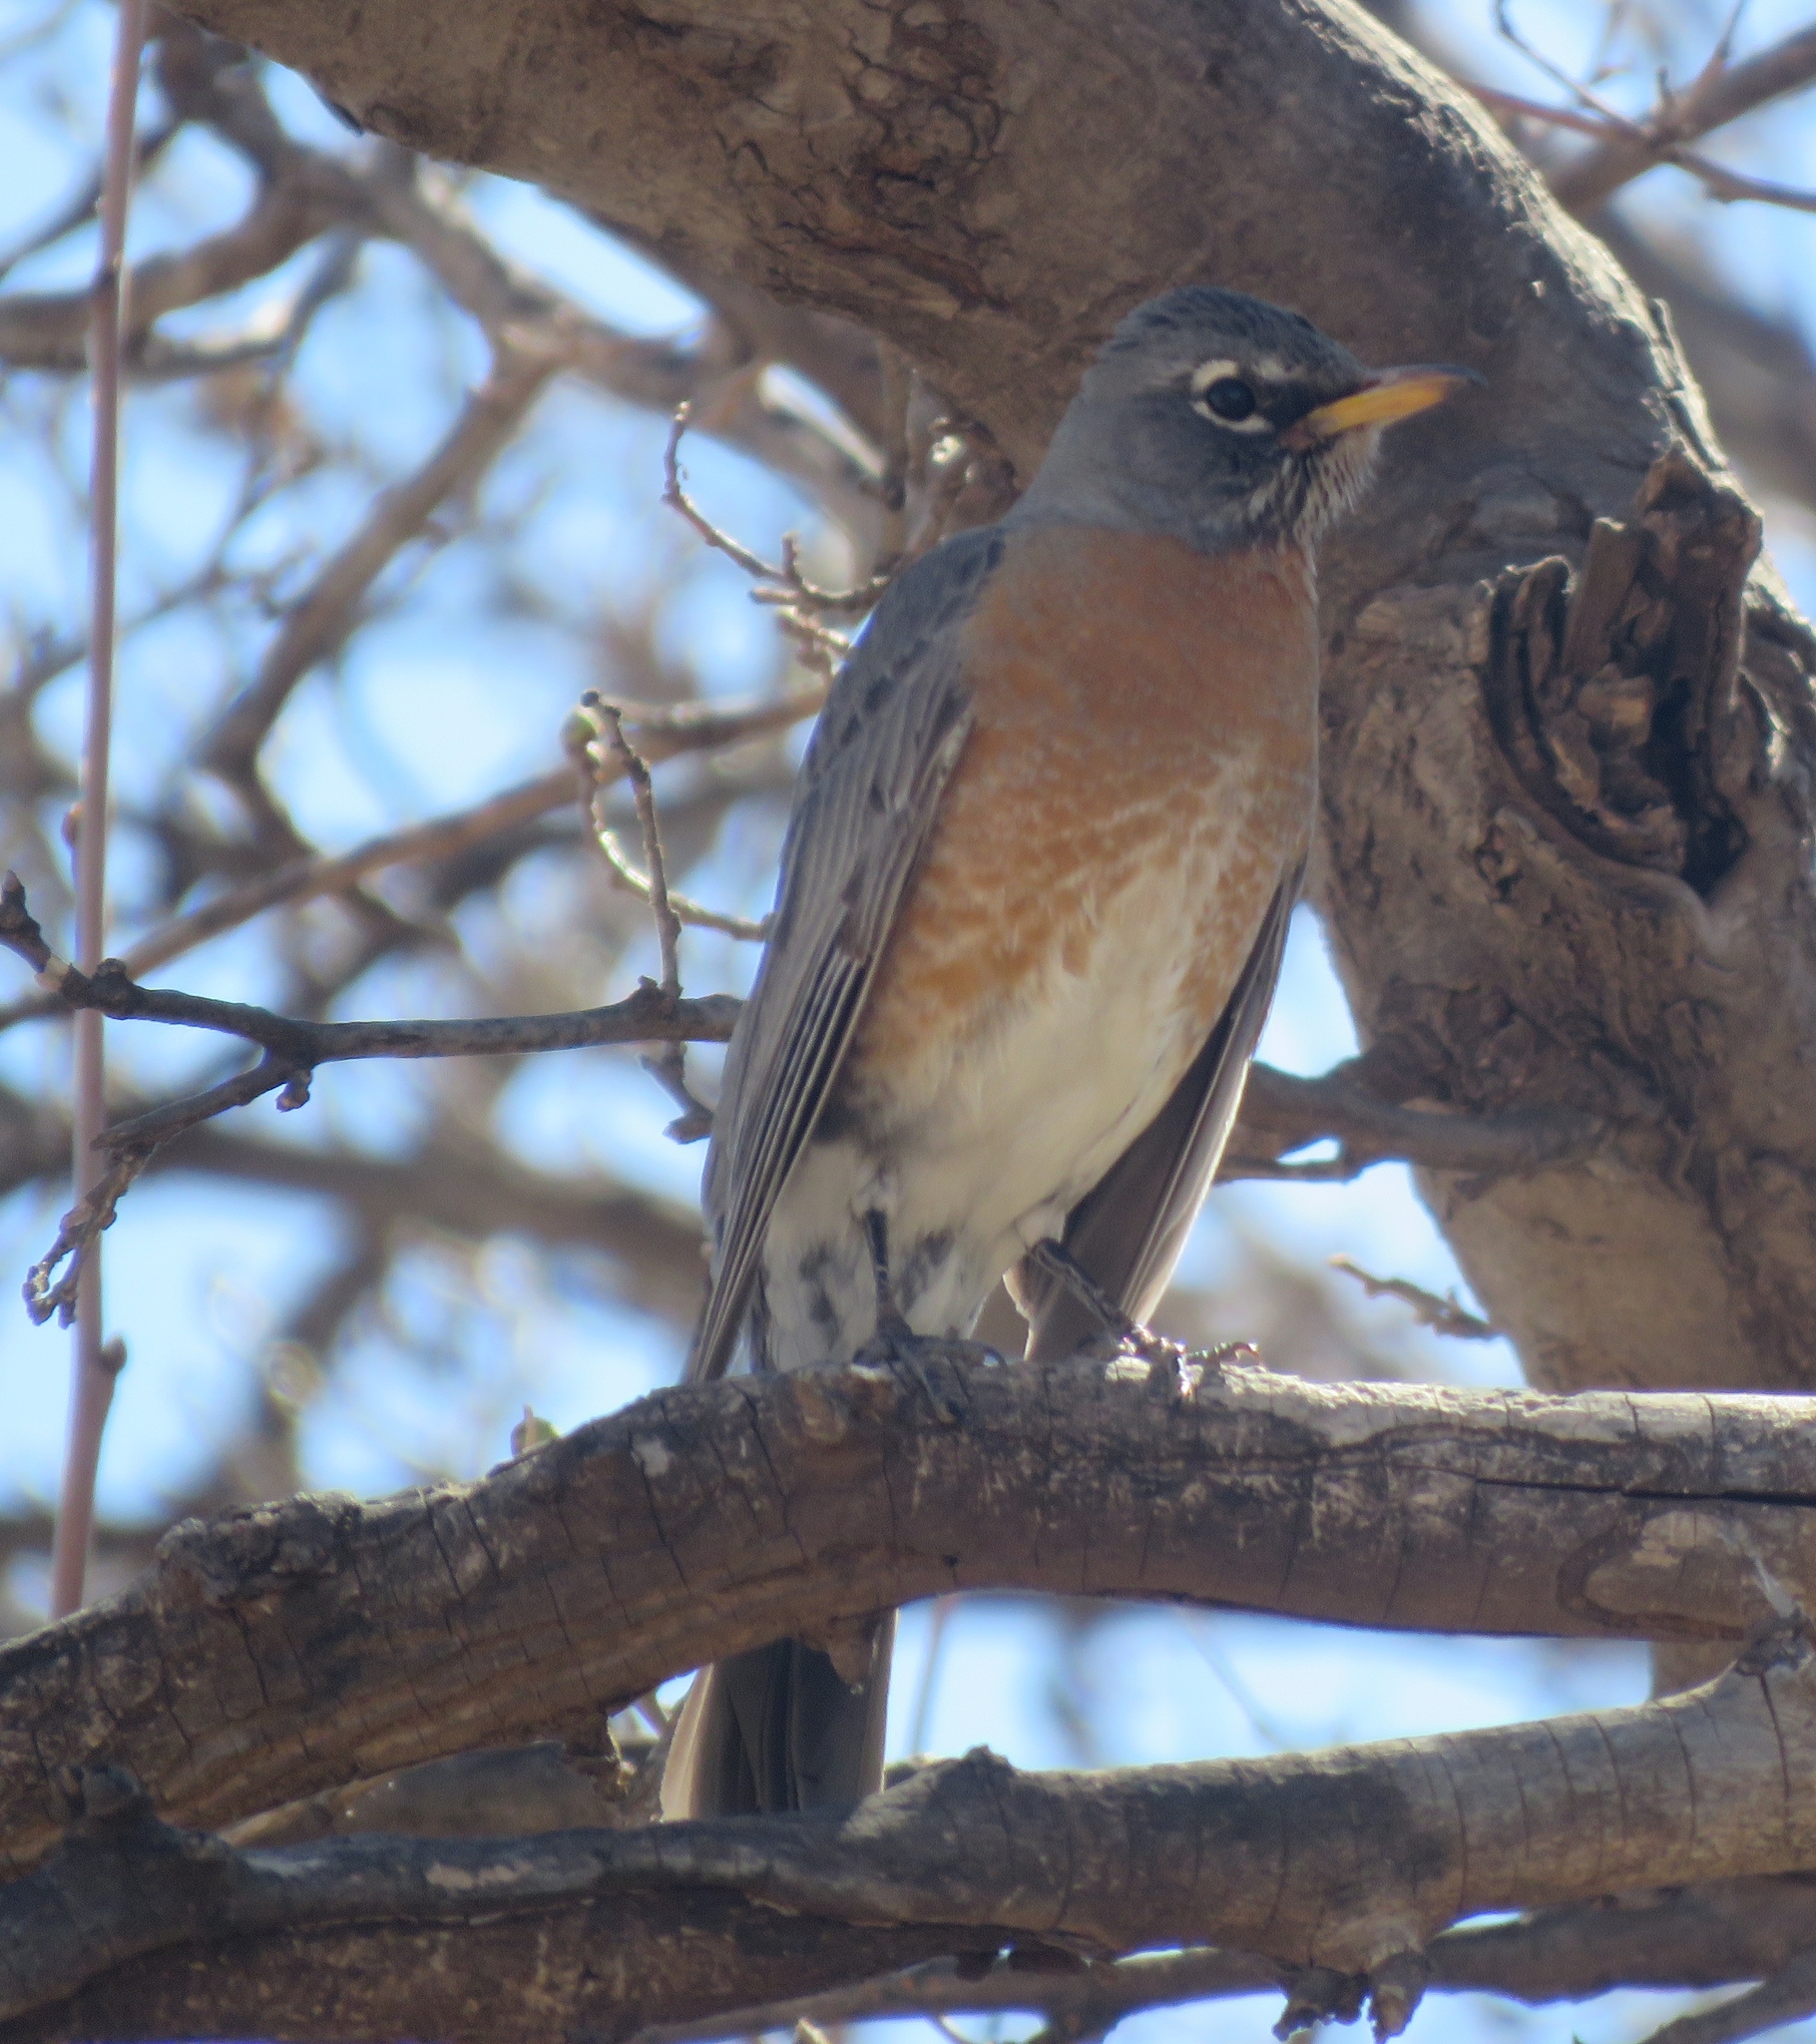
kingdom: Animalia
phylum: Chordata
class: Aves
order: Passeriformes
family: Turdidae
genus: Turdus
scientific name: Turdus migratorius
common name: American robin
